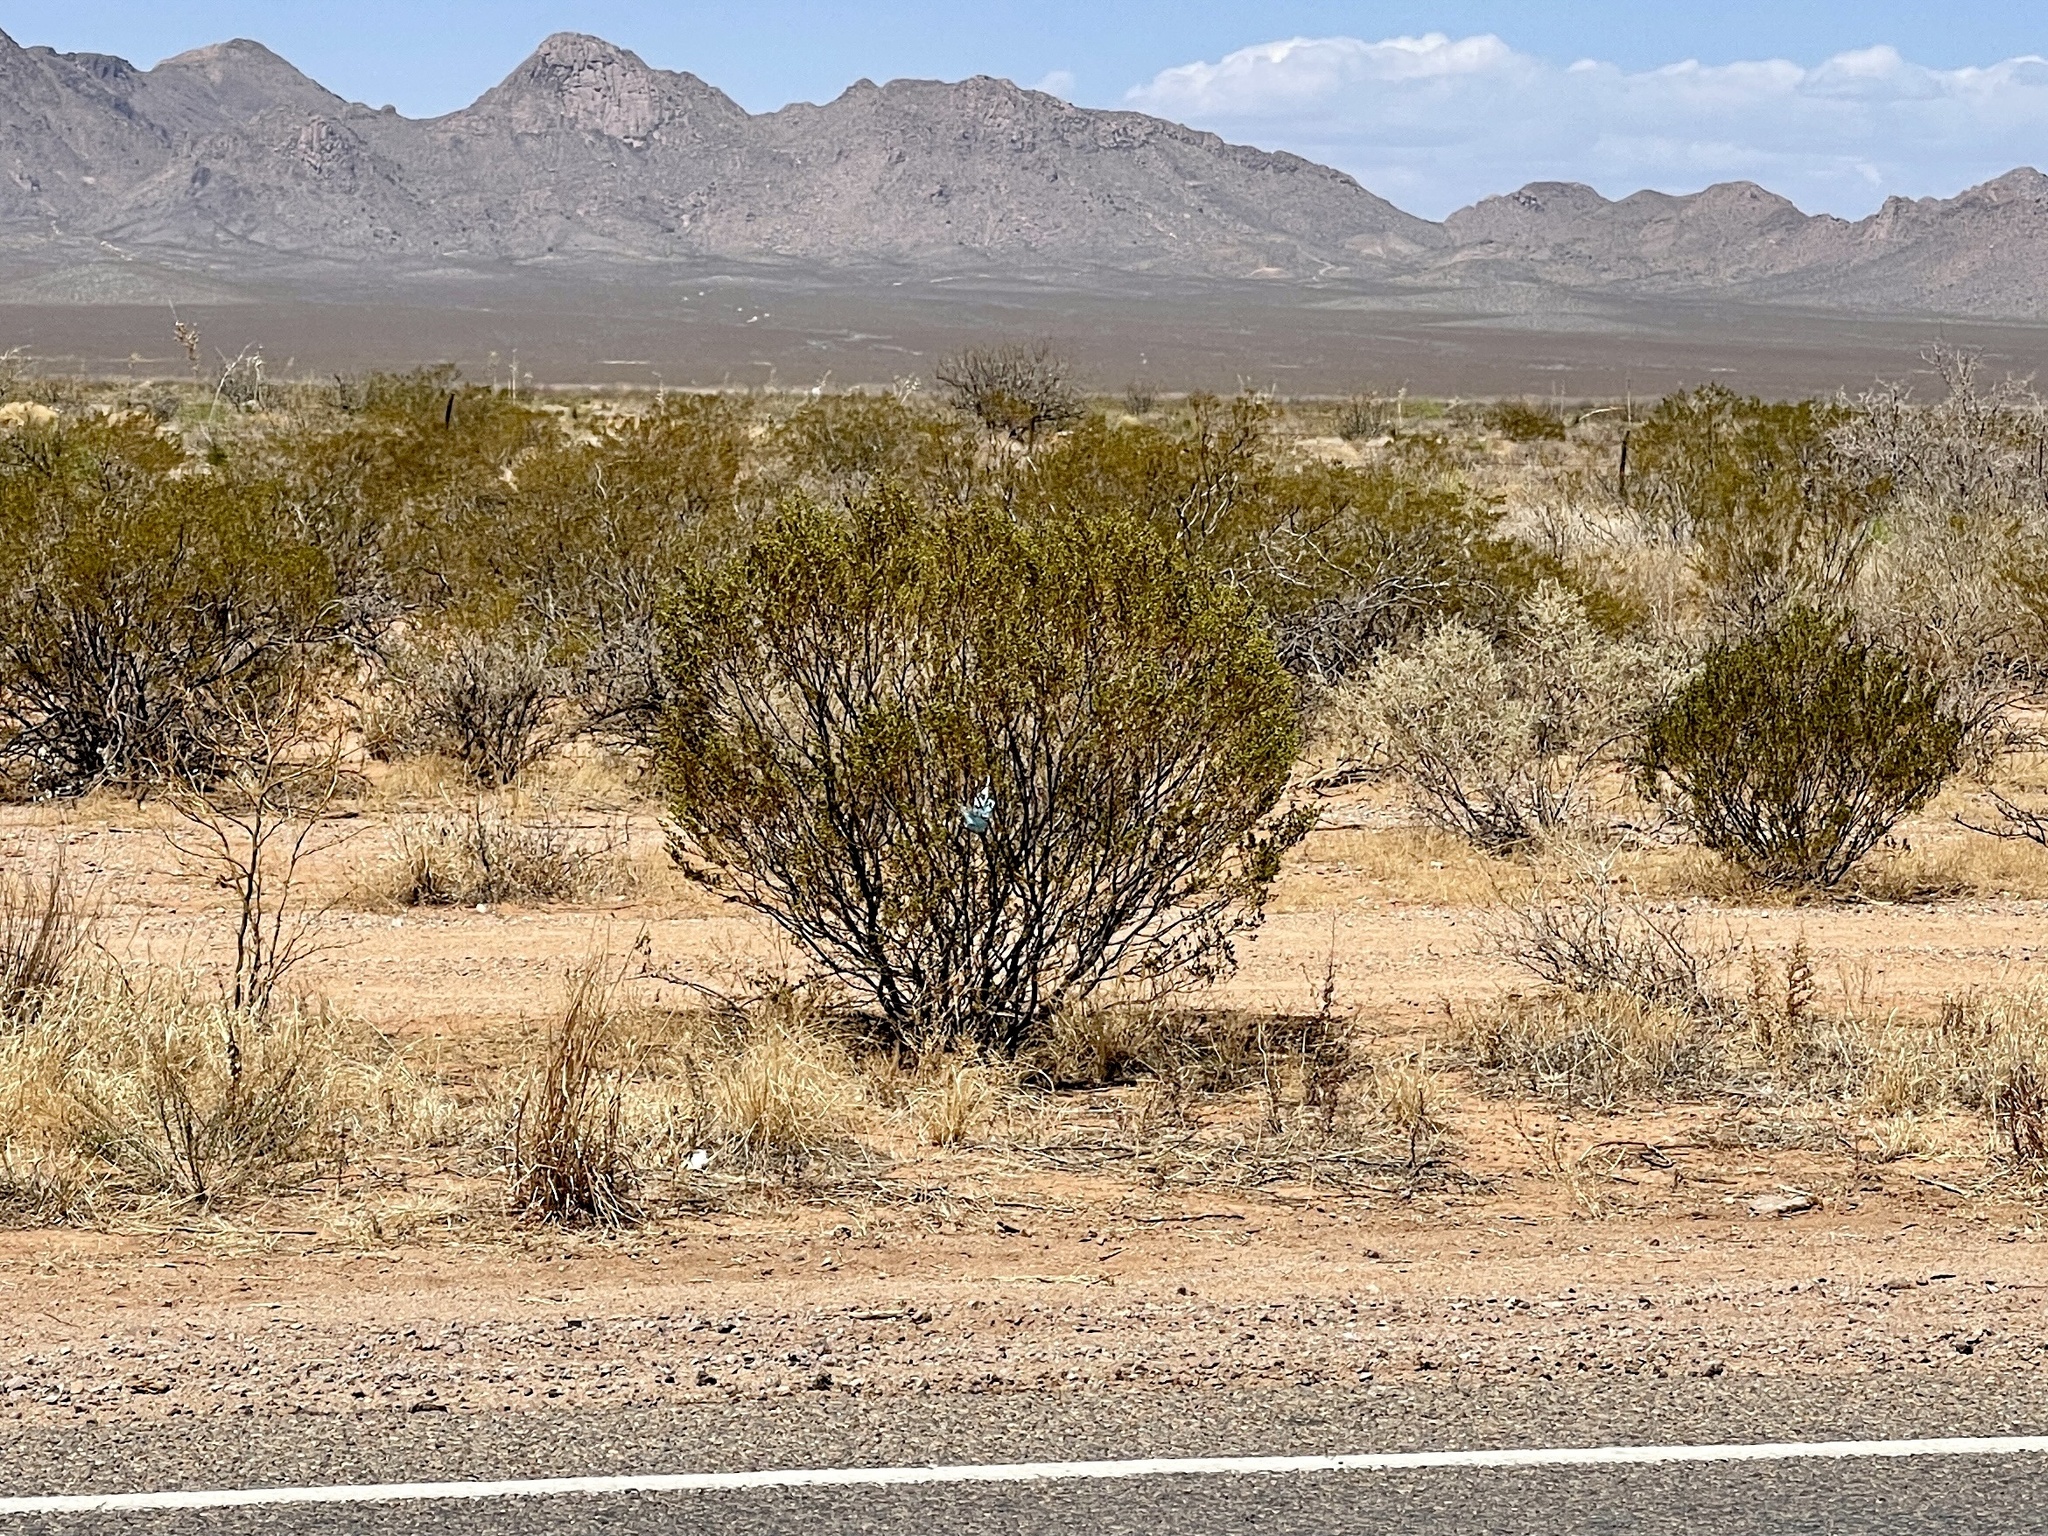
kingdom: Plantae
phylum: Tracheophyta
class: Magnoliopsida
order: Zygophyllales
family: Zygophyllaceae
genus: Larrea
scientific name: Larrea tridentata
